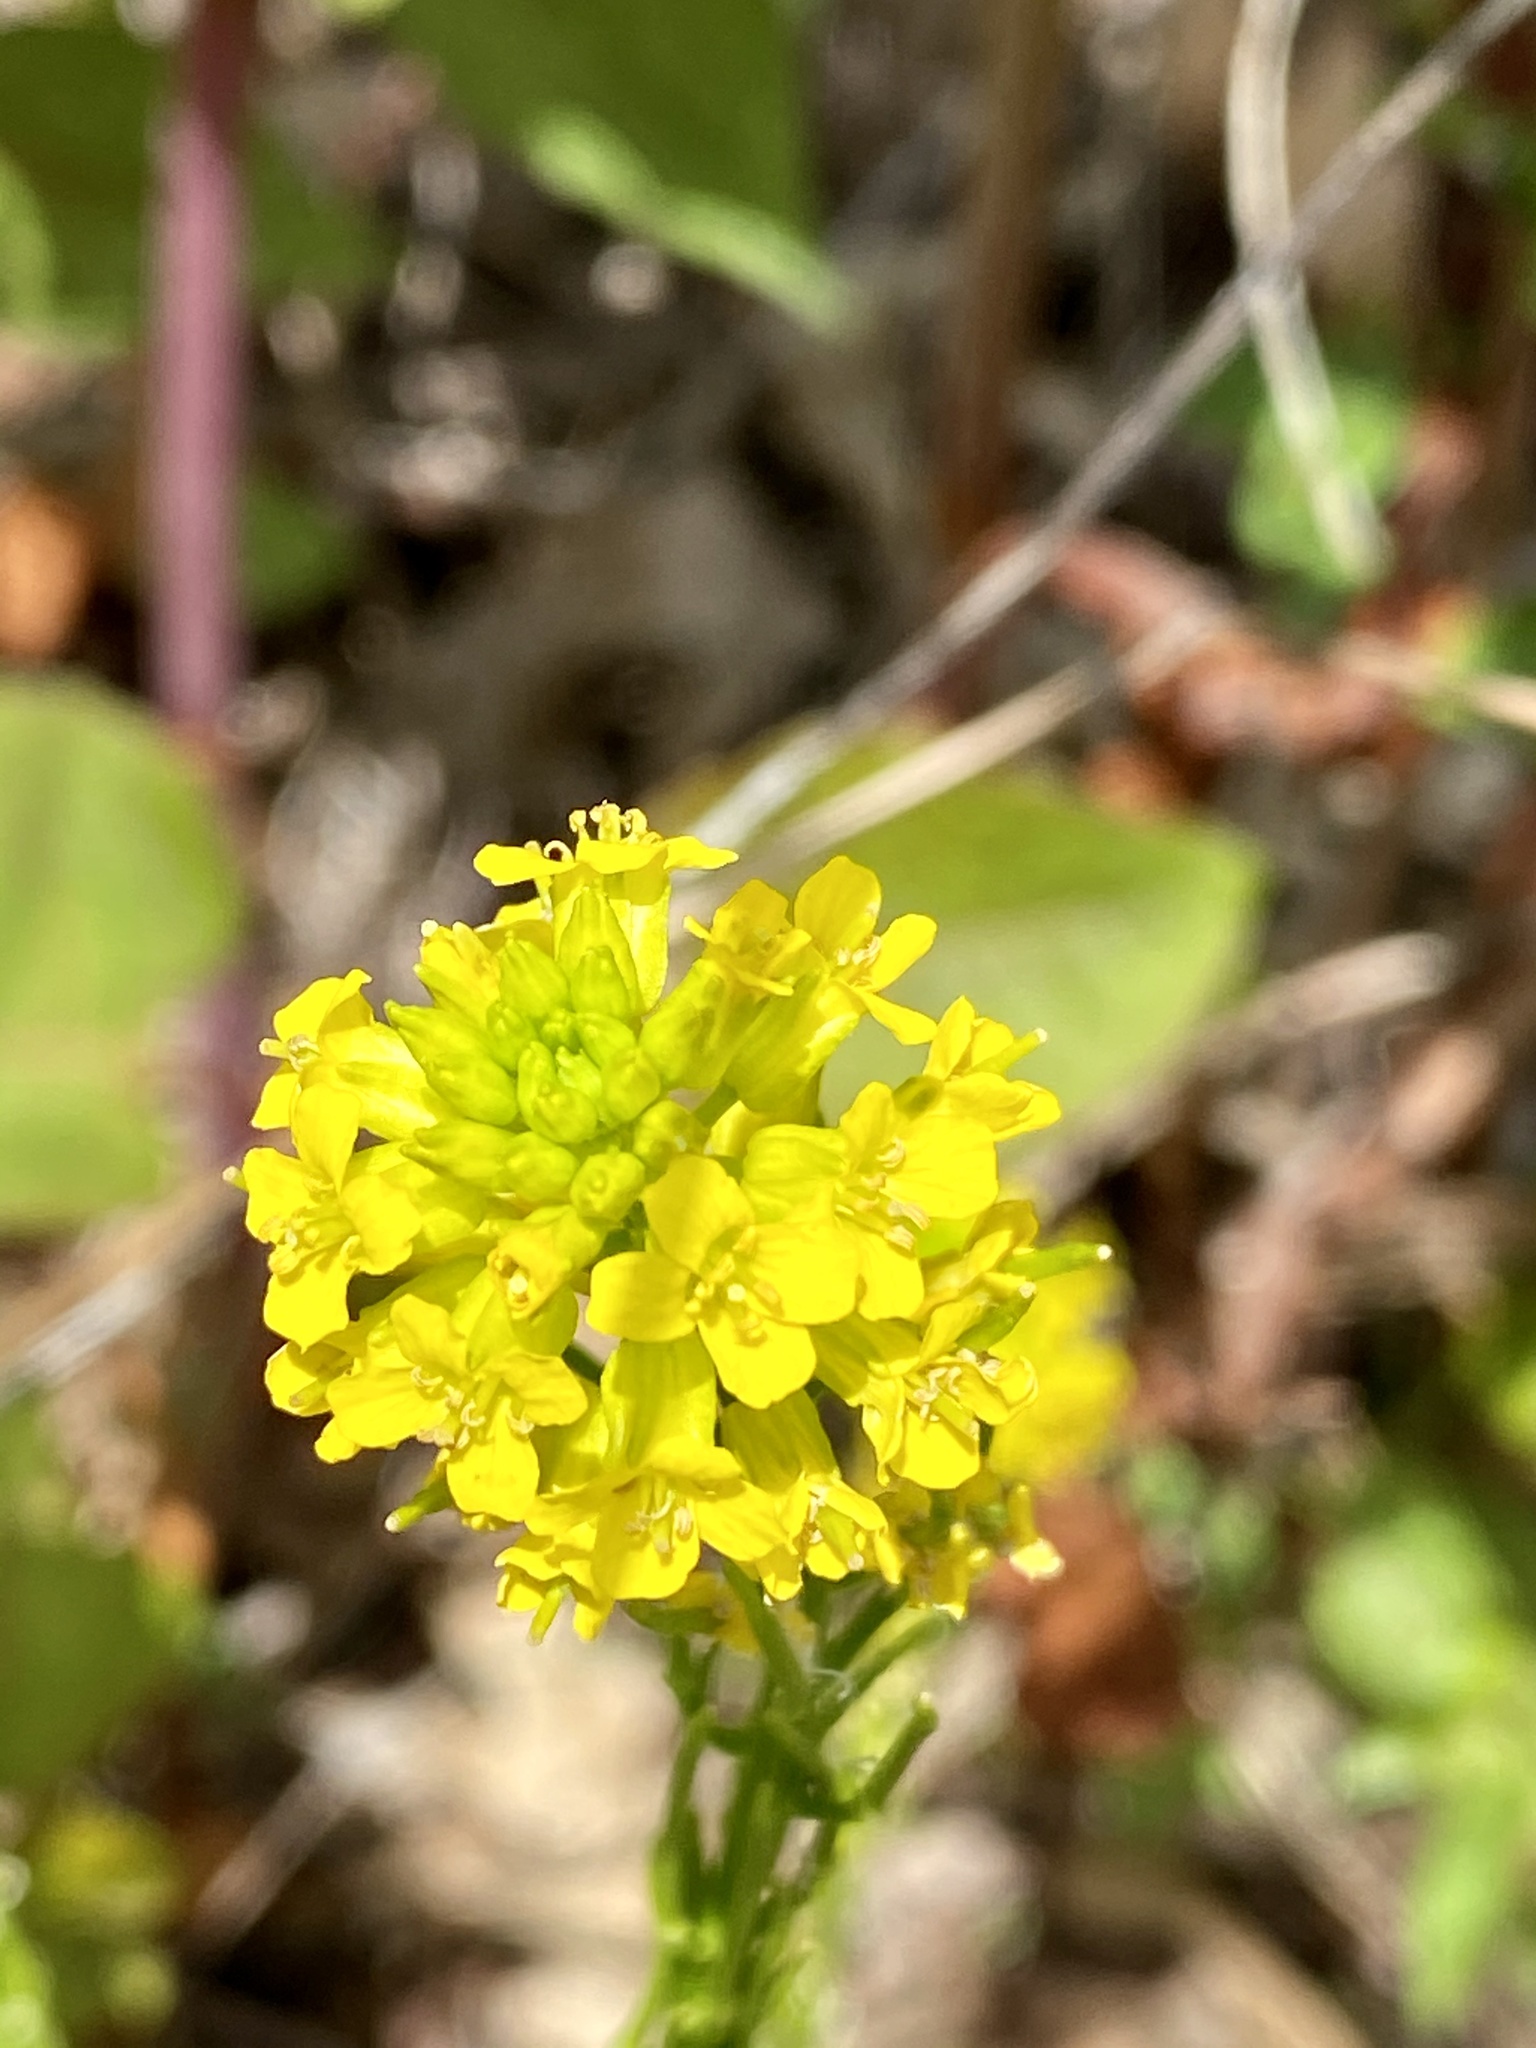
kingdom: Plantae
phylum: Tracheophyta
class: Magnoliopsida
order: Brassicales
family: Brassicaceae
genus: Barbarea
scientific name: Barbarea vulgaris
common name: Cressy-greens
